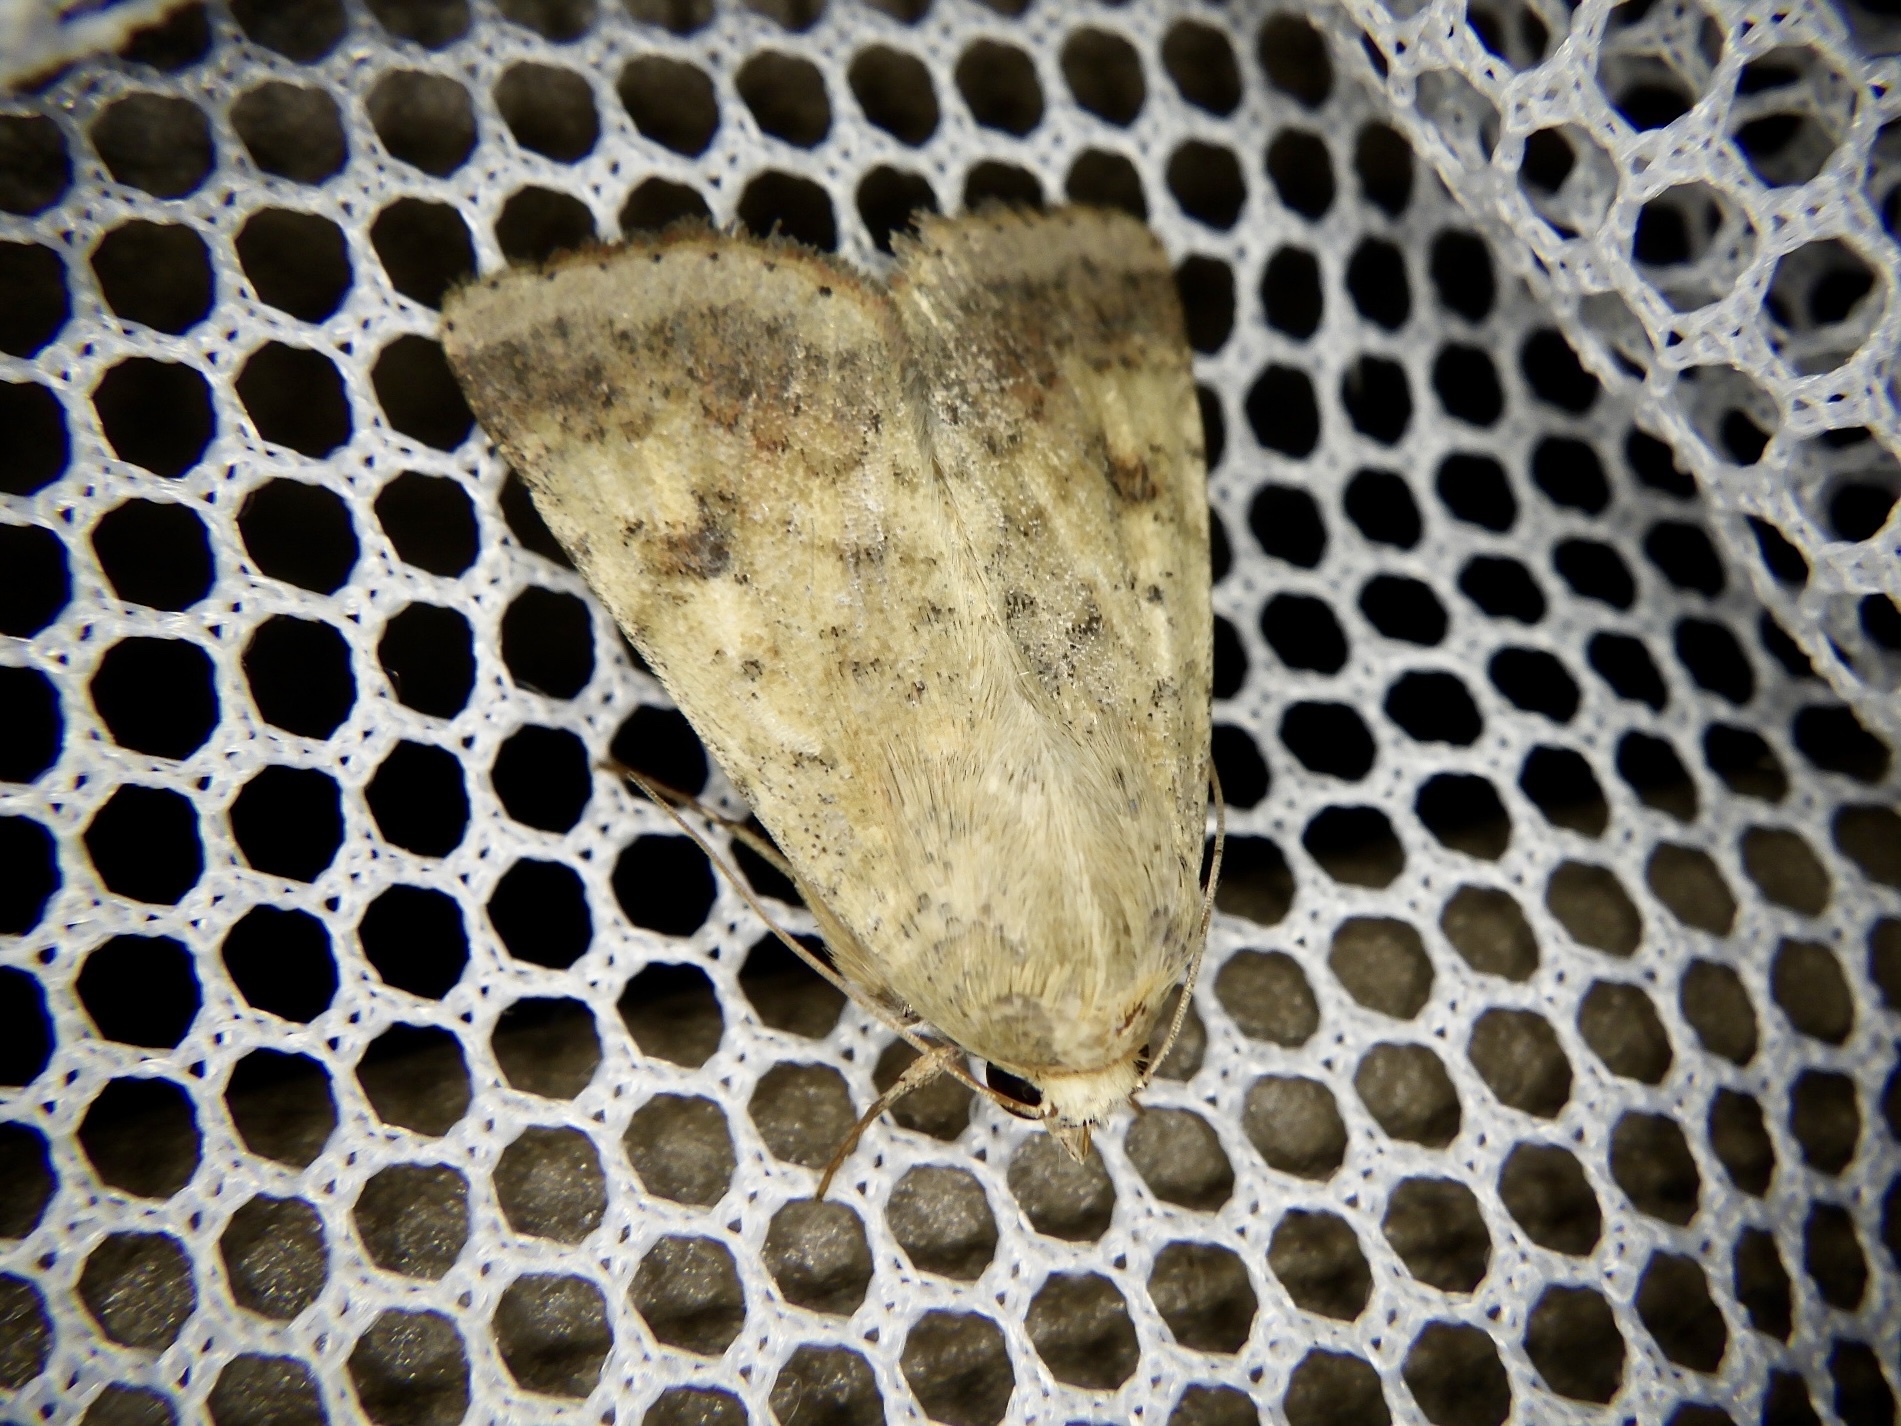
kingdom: Animalia
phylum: Arthropoda
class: Insecta
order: Lepidoptera
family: Noctuidae
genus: Helicoverpa
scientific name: Helicoverpa armigera
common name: Cotton bollworm
